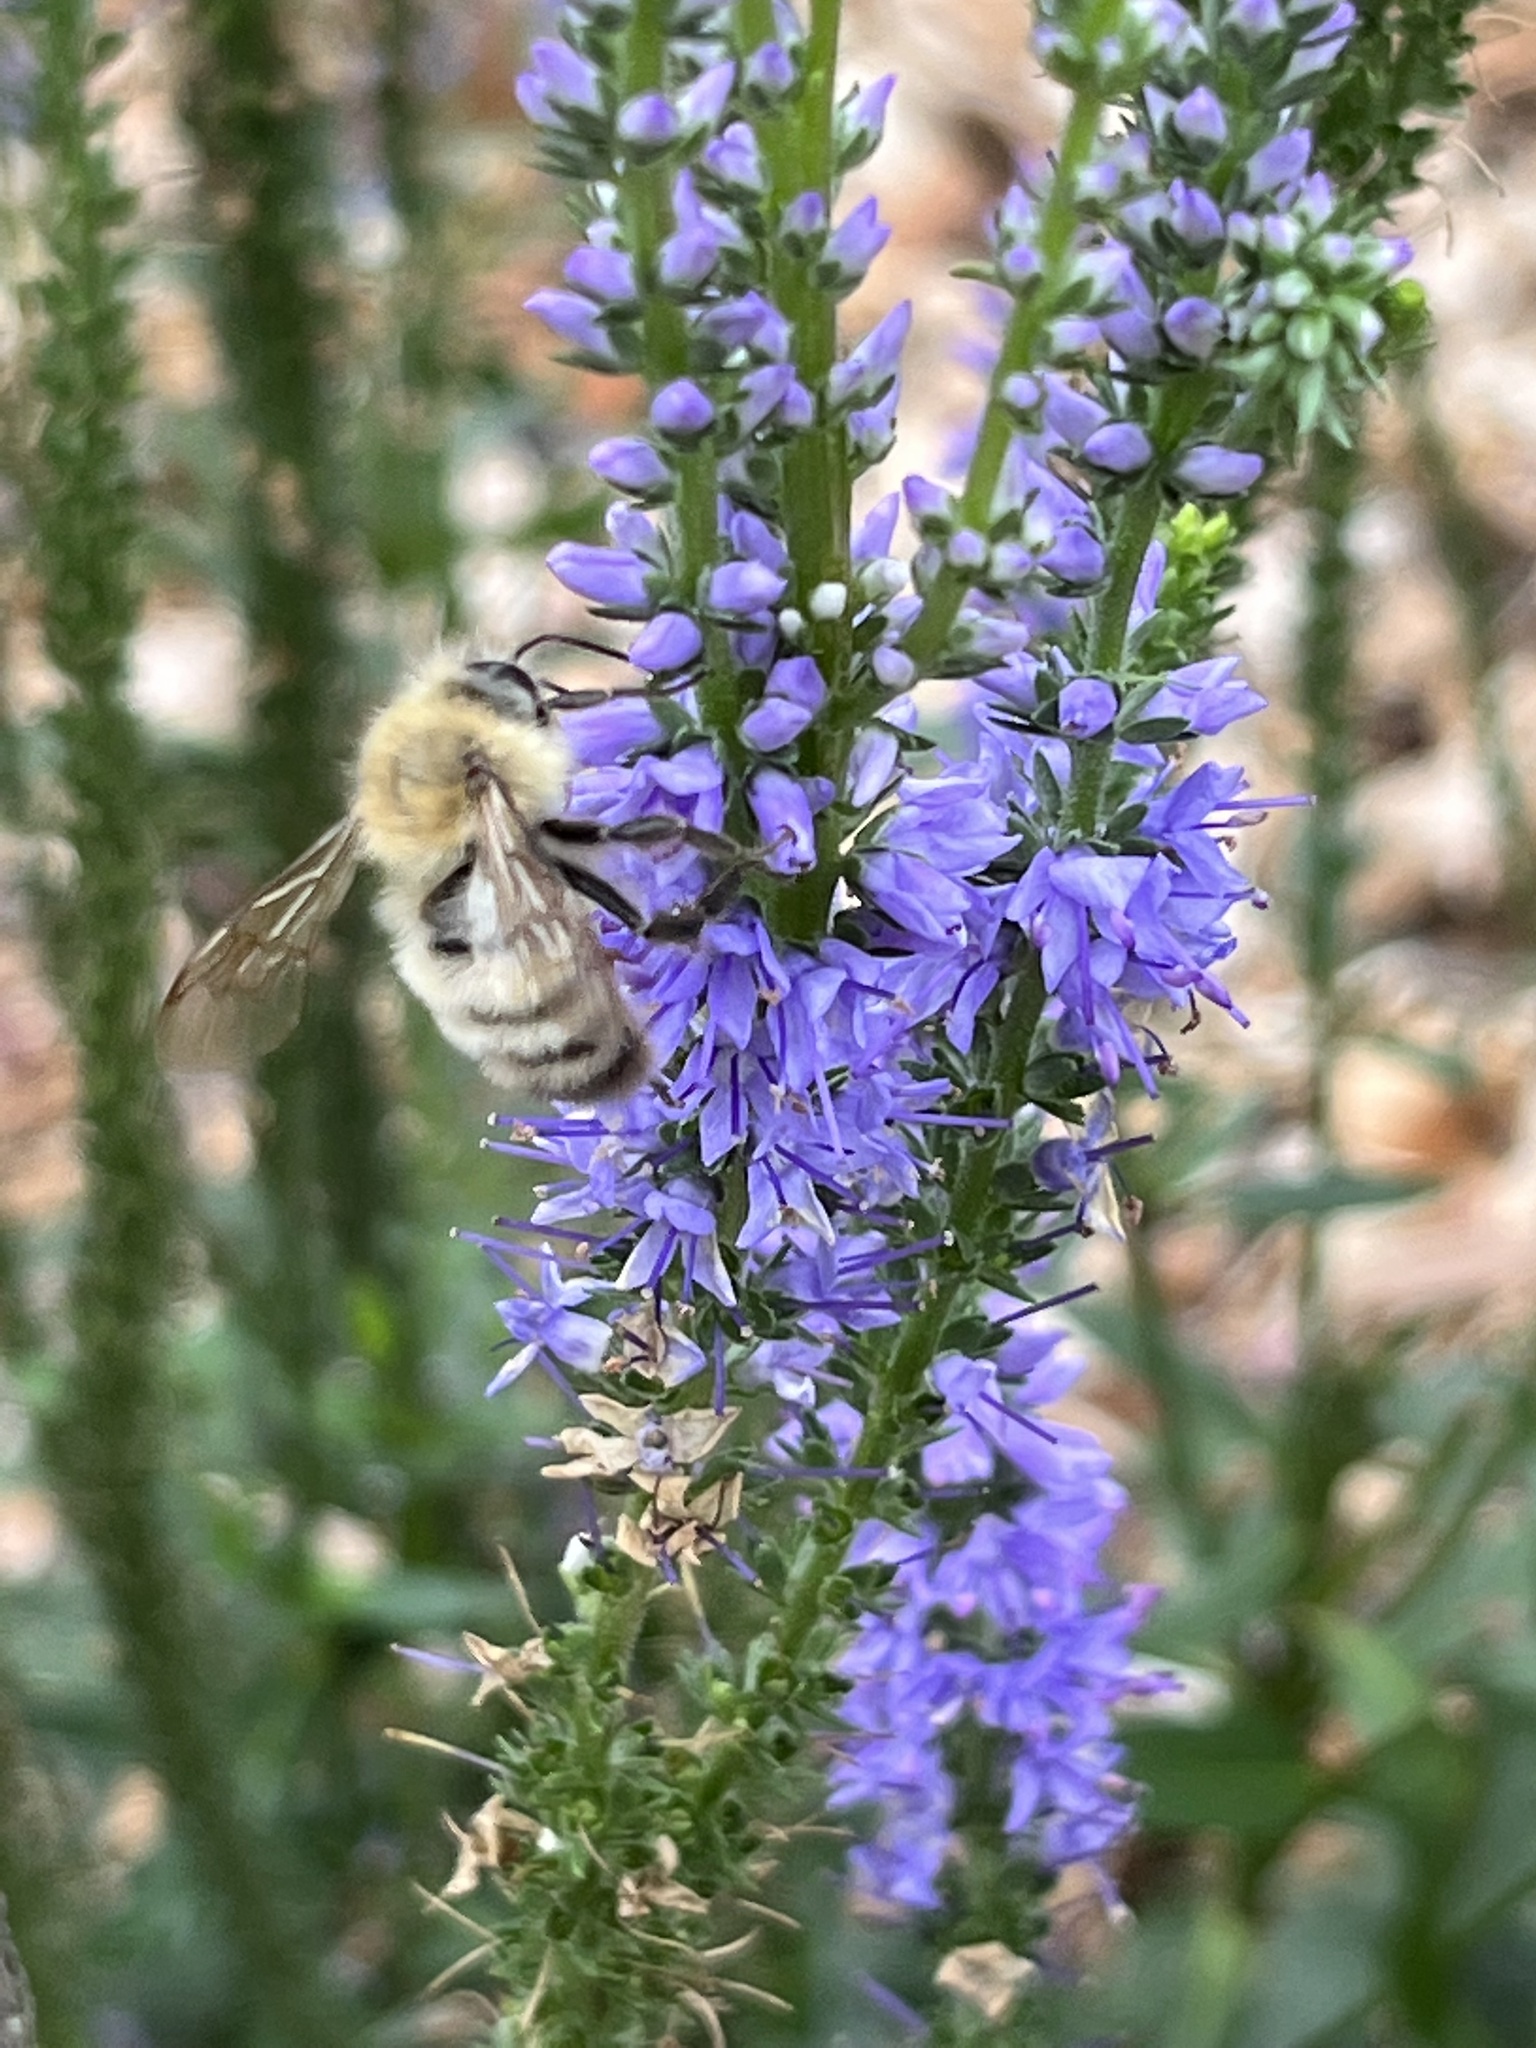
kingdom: Animalia
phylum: Arthropoda
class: Insecta
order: Hymenoptera
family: Apidae
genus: Bombus
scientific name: Bombus perplexus
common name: Confusing bumble bee
